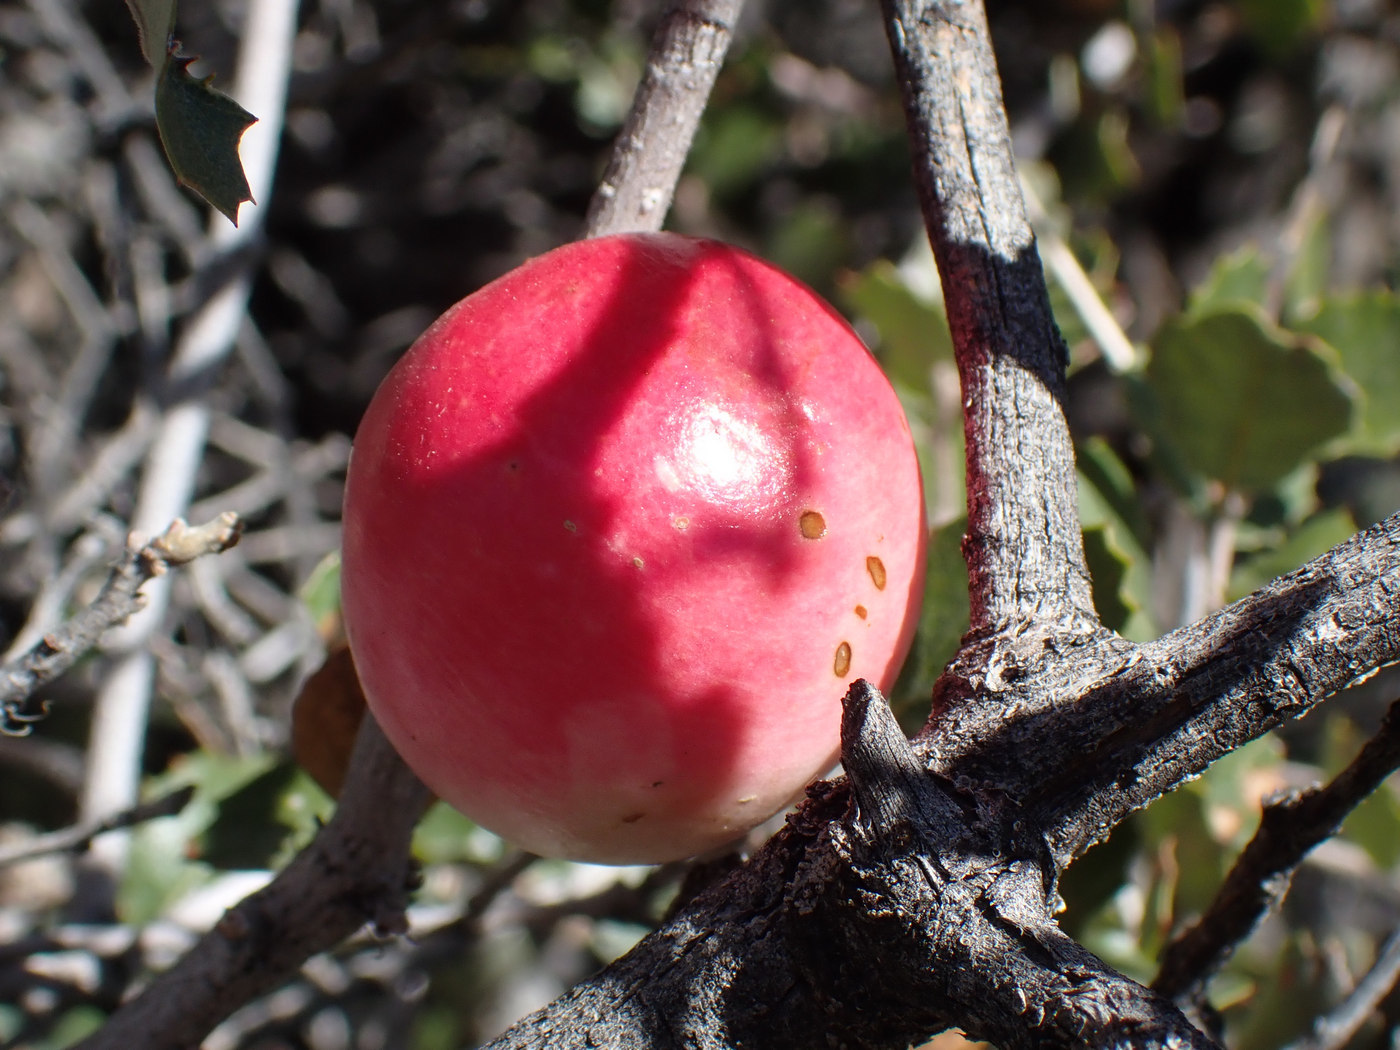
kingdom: Animalia
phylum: Arthropoda
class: Insecta
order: Hymenoptera
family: Cynipidae
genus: Andricus
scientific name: Andricus quercuscalifornicus
